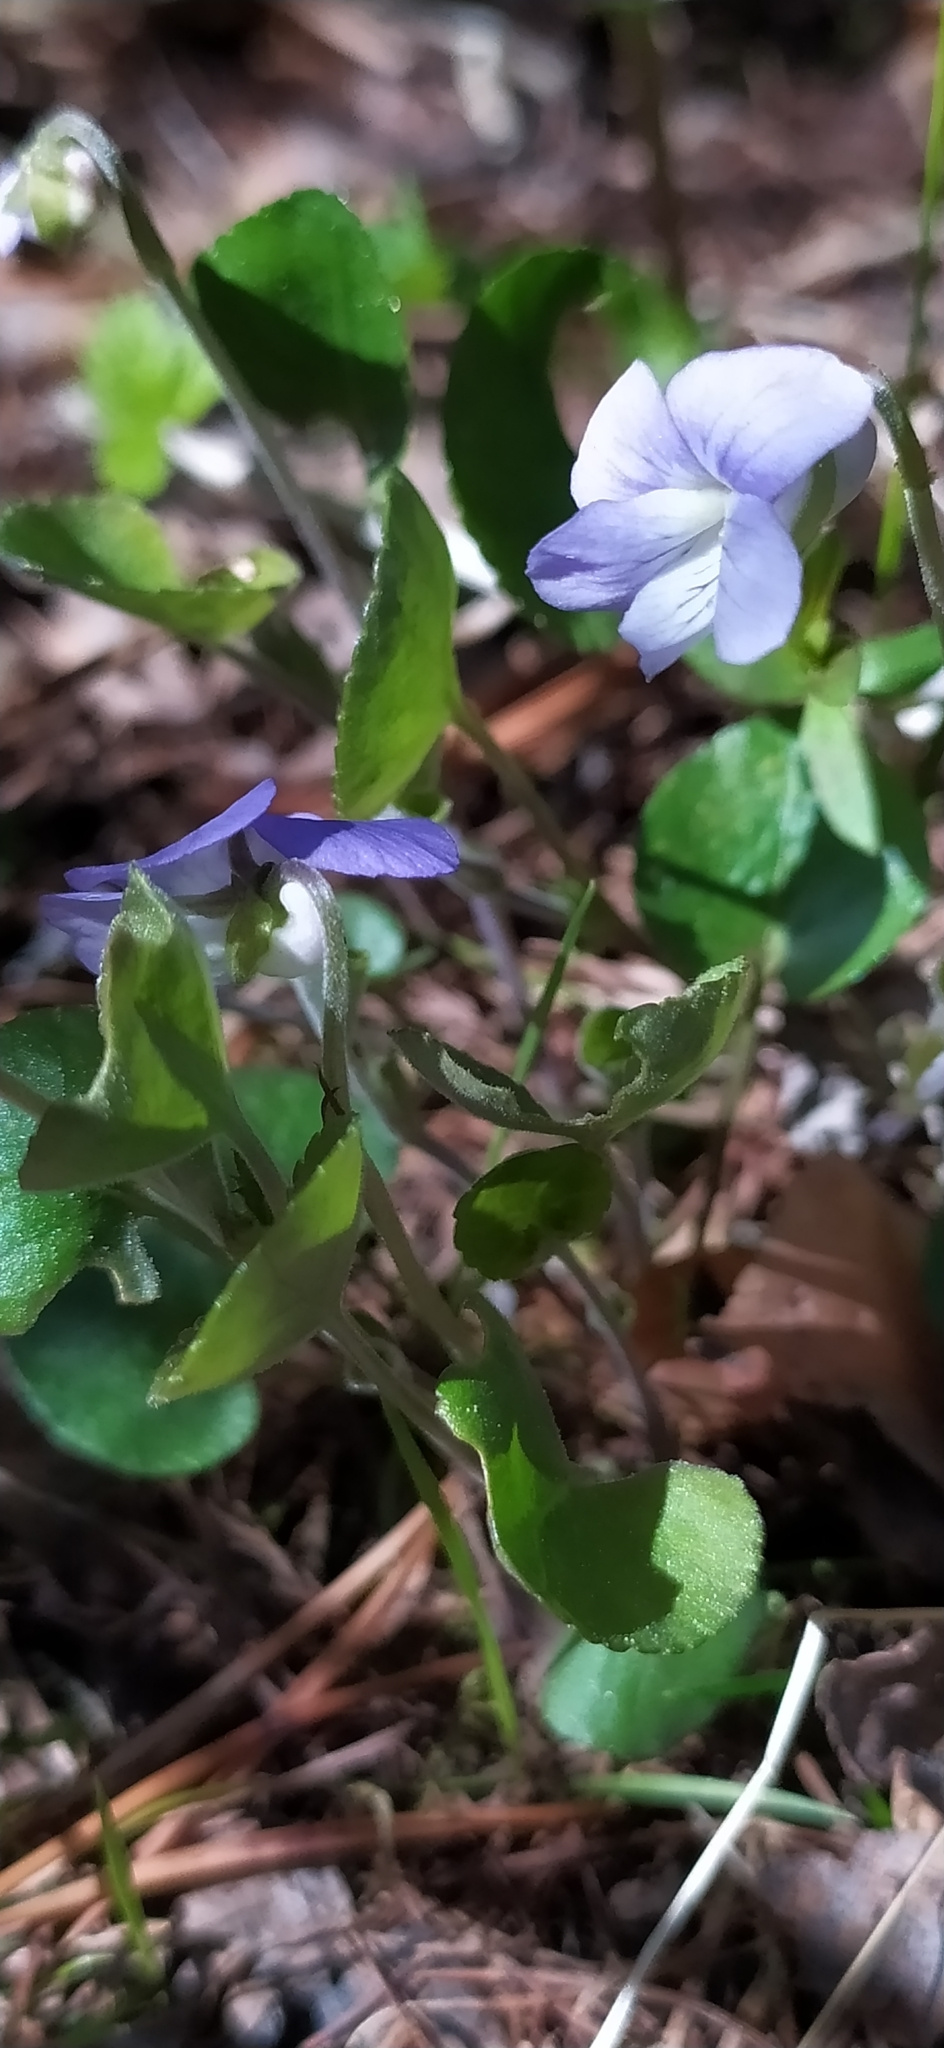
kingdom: Plantae
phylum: Tracheophyta
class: Magnoliopsida
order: Malpighiales
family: Violaceae
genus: Viola
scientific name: Viola rupestris
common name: Teesdale violet
